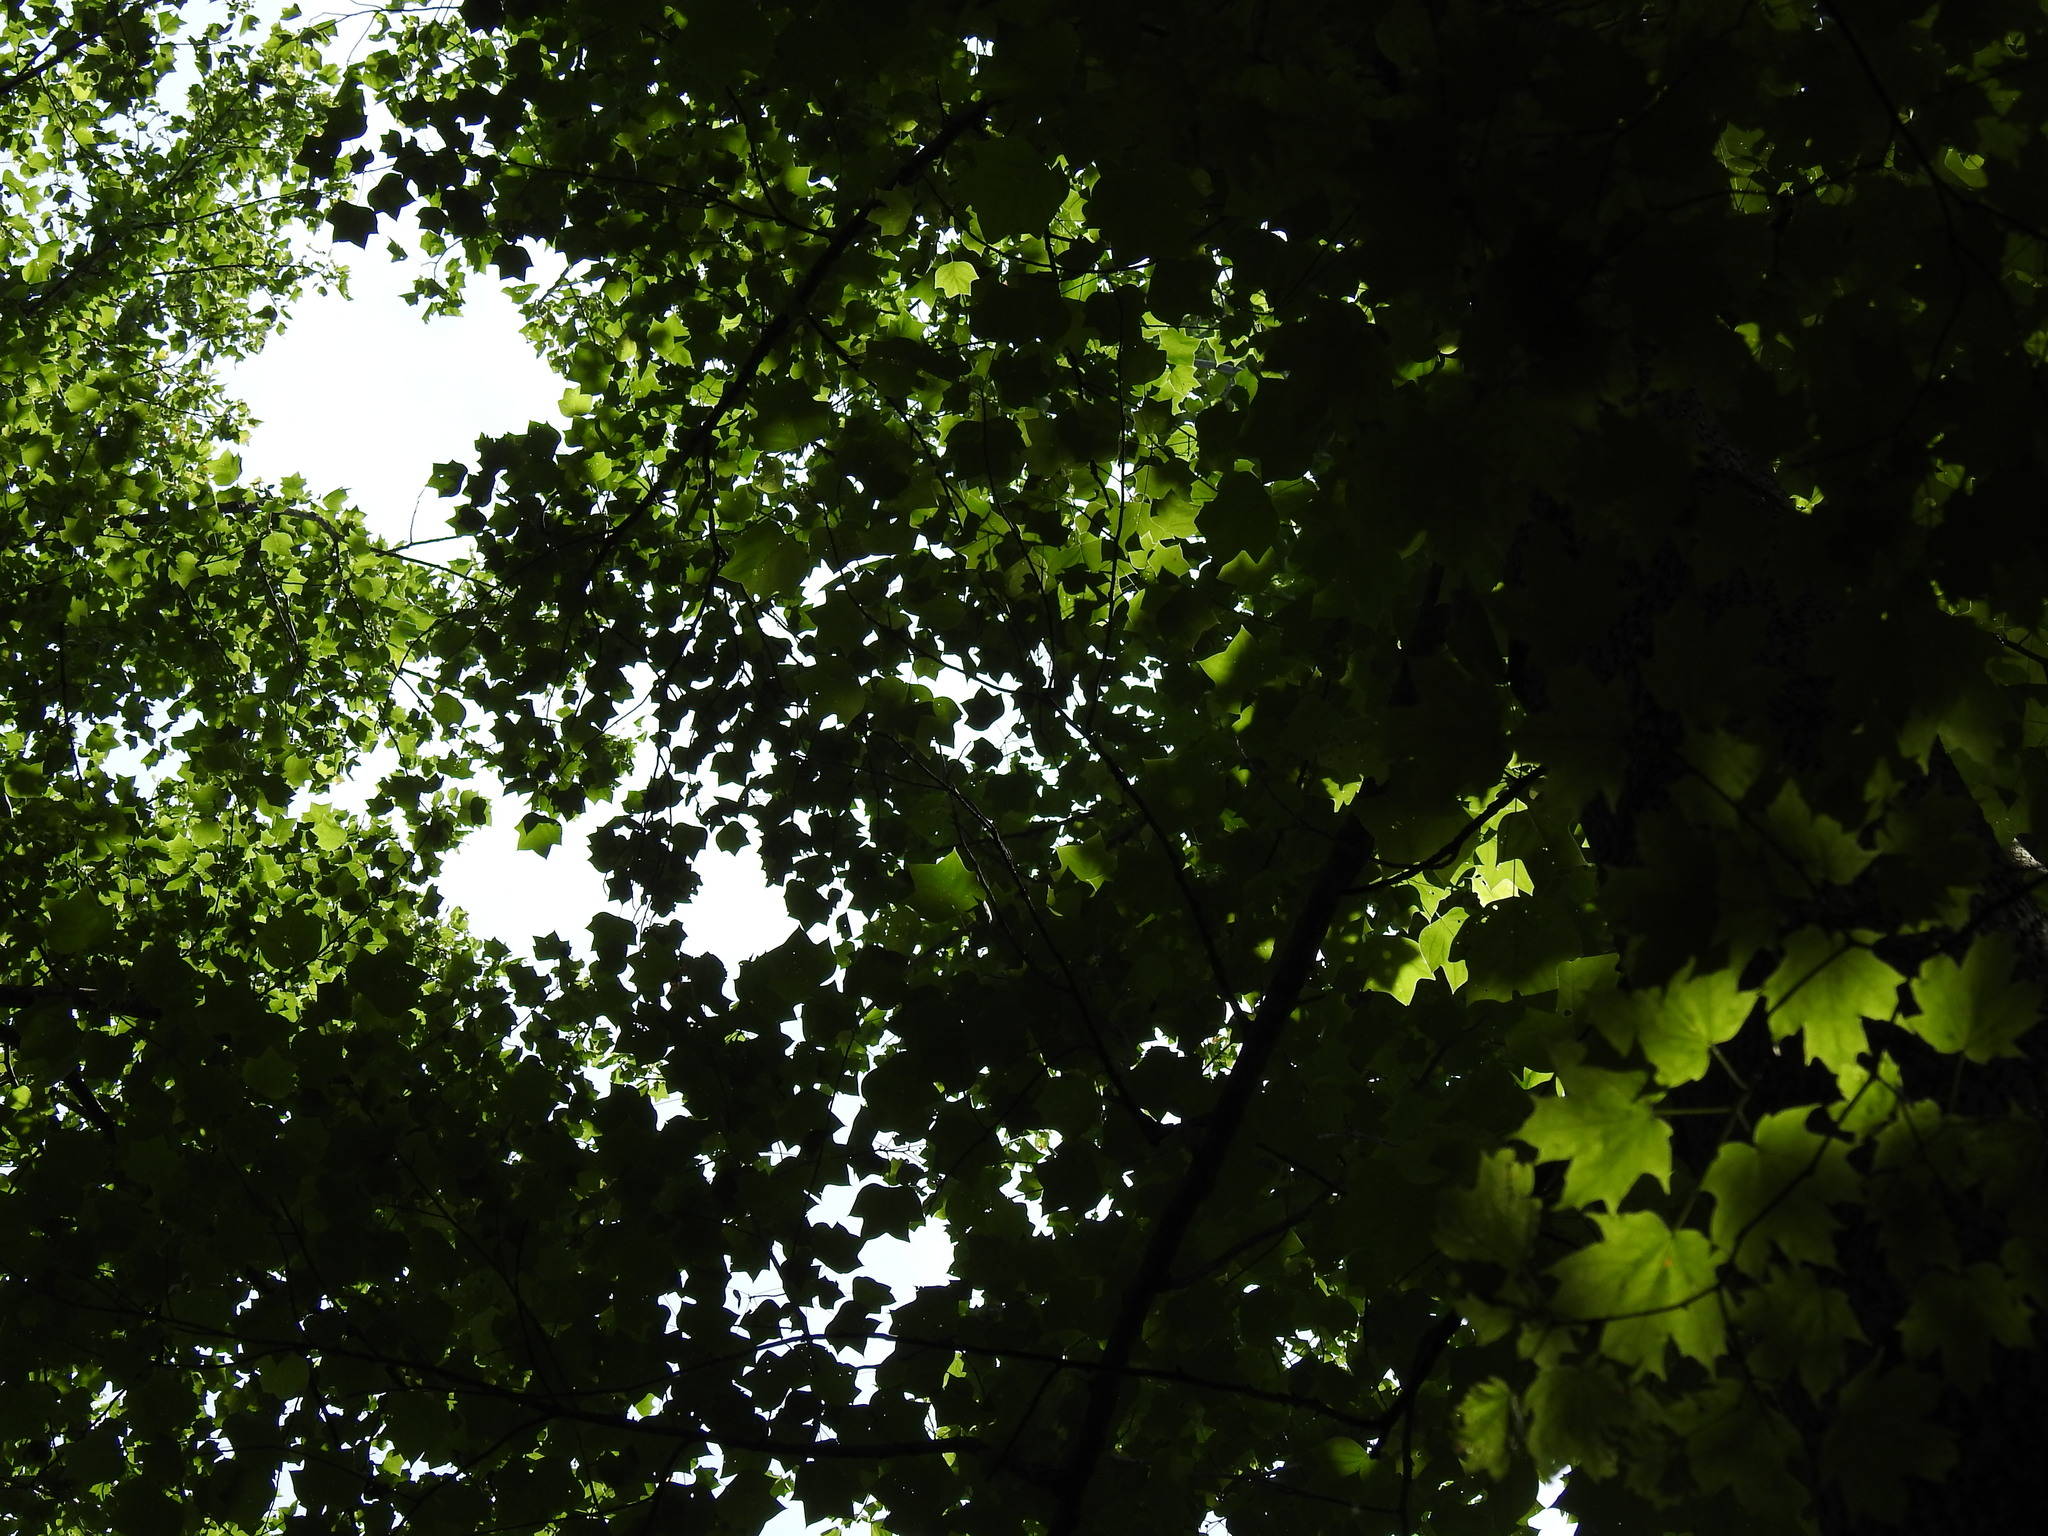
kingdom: Plantae
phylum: Tracheophyta
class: Magnoliopsida
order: Magnoliales
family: Magnoliaceae
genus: Liriodendron
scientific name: Liriodendron tulipifera
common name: Tulip tree
